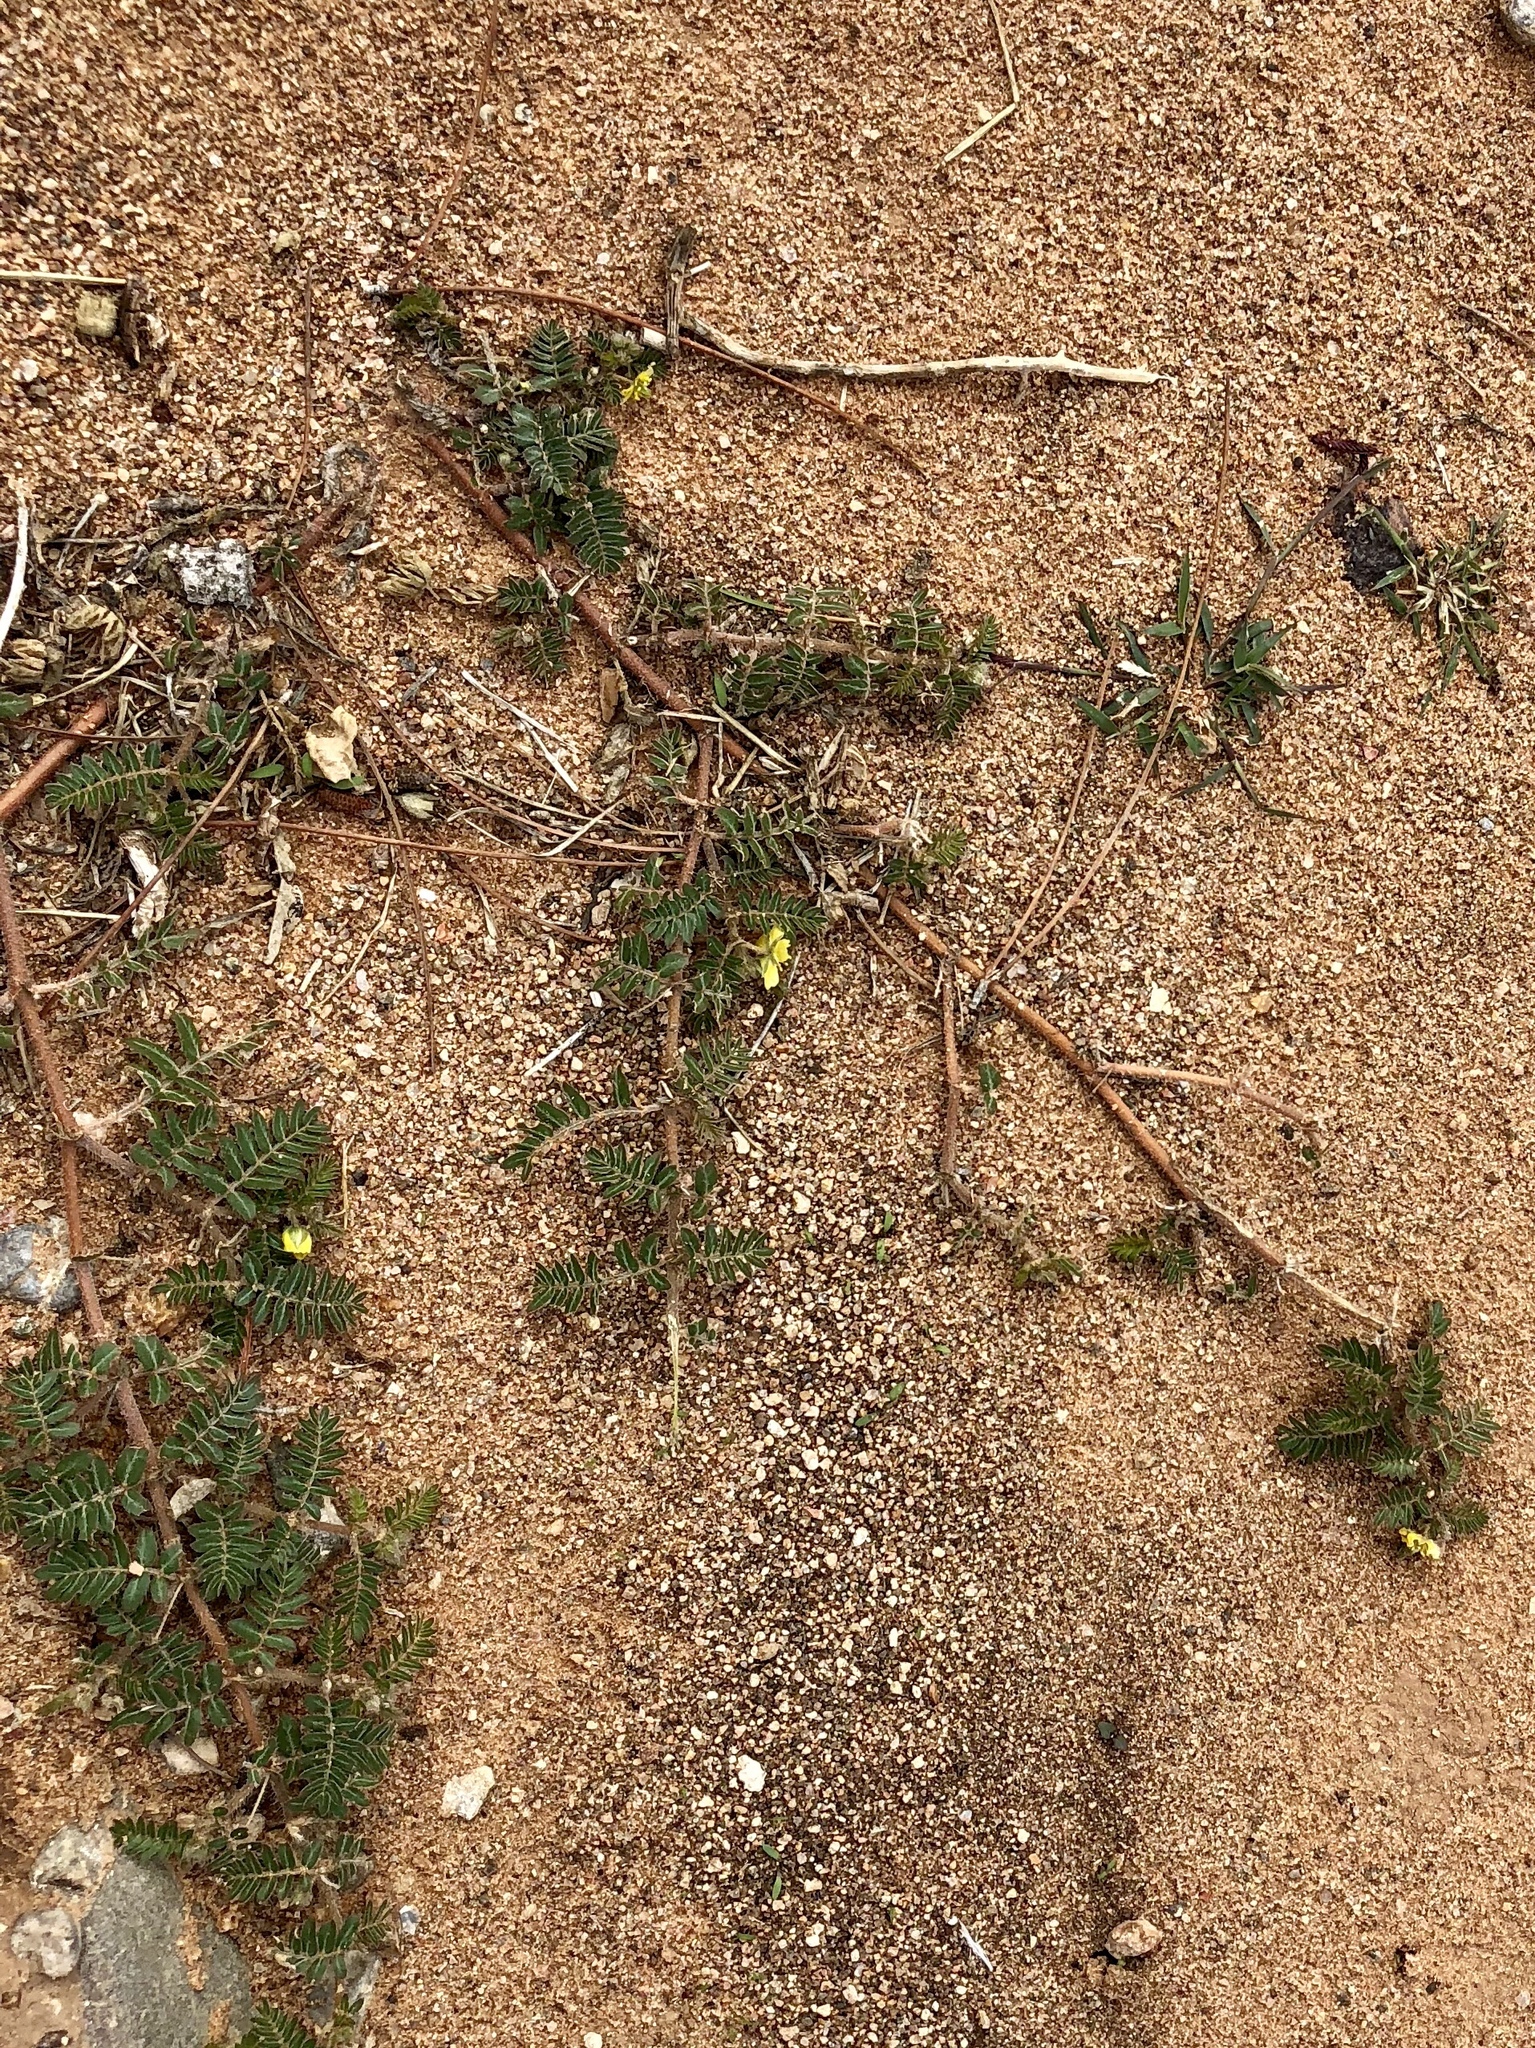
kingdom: Plantae
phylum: Tracheophyta
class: Magnoliopsida
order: Zygophyllales
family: Zygophyllaceae
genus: Tribulus
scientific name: Tribulus terrestris
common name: Puncturevine
